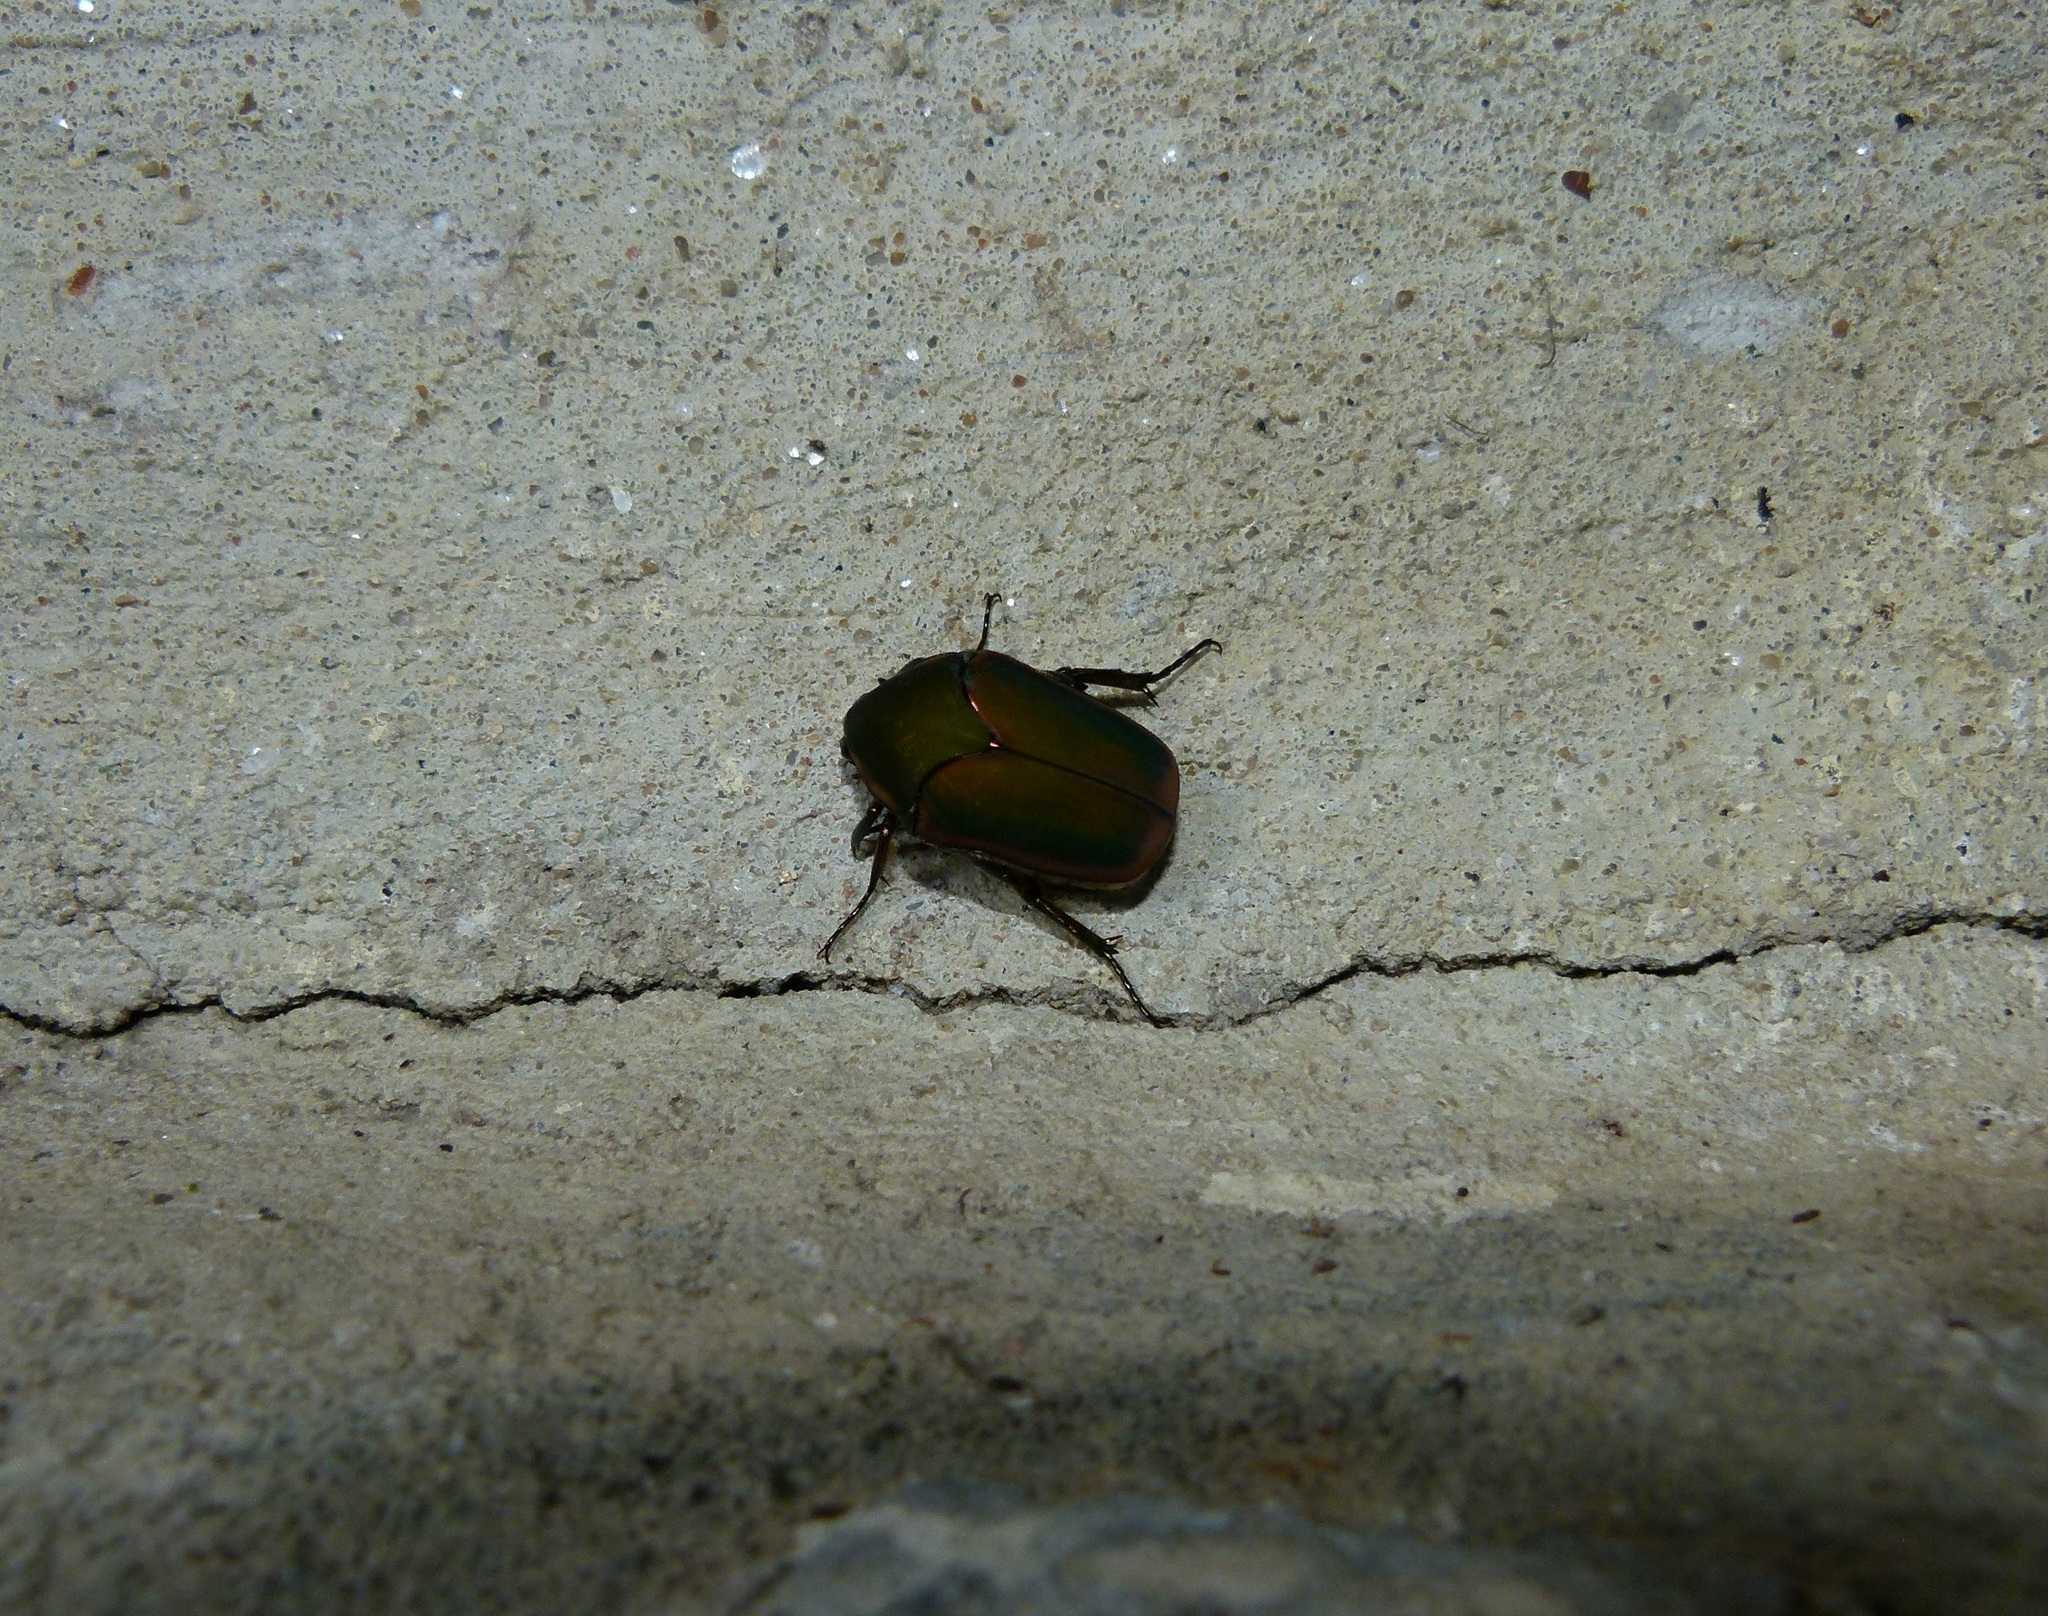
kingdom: Animalia
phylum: Arthropoda
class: Insecta
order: Coleoptera
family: Scarabaeidae
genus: Cotinis
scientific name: Cotinis nitida
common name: Common green june beetle
